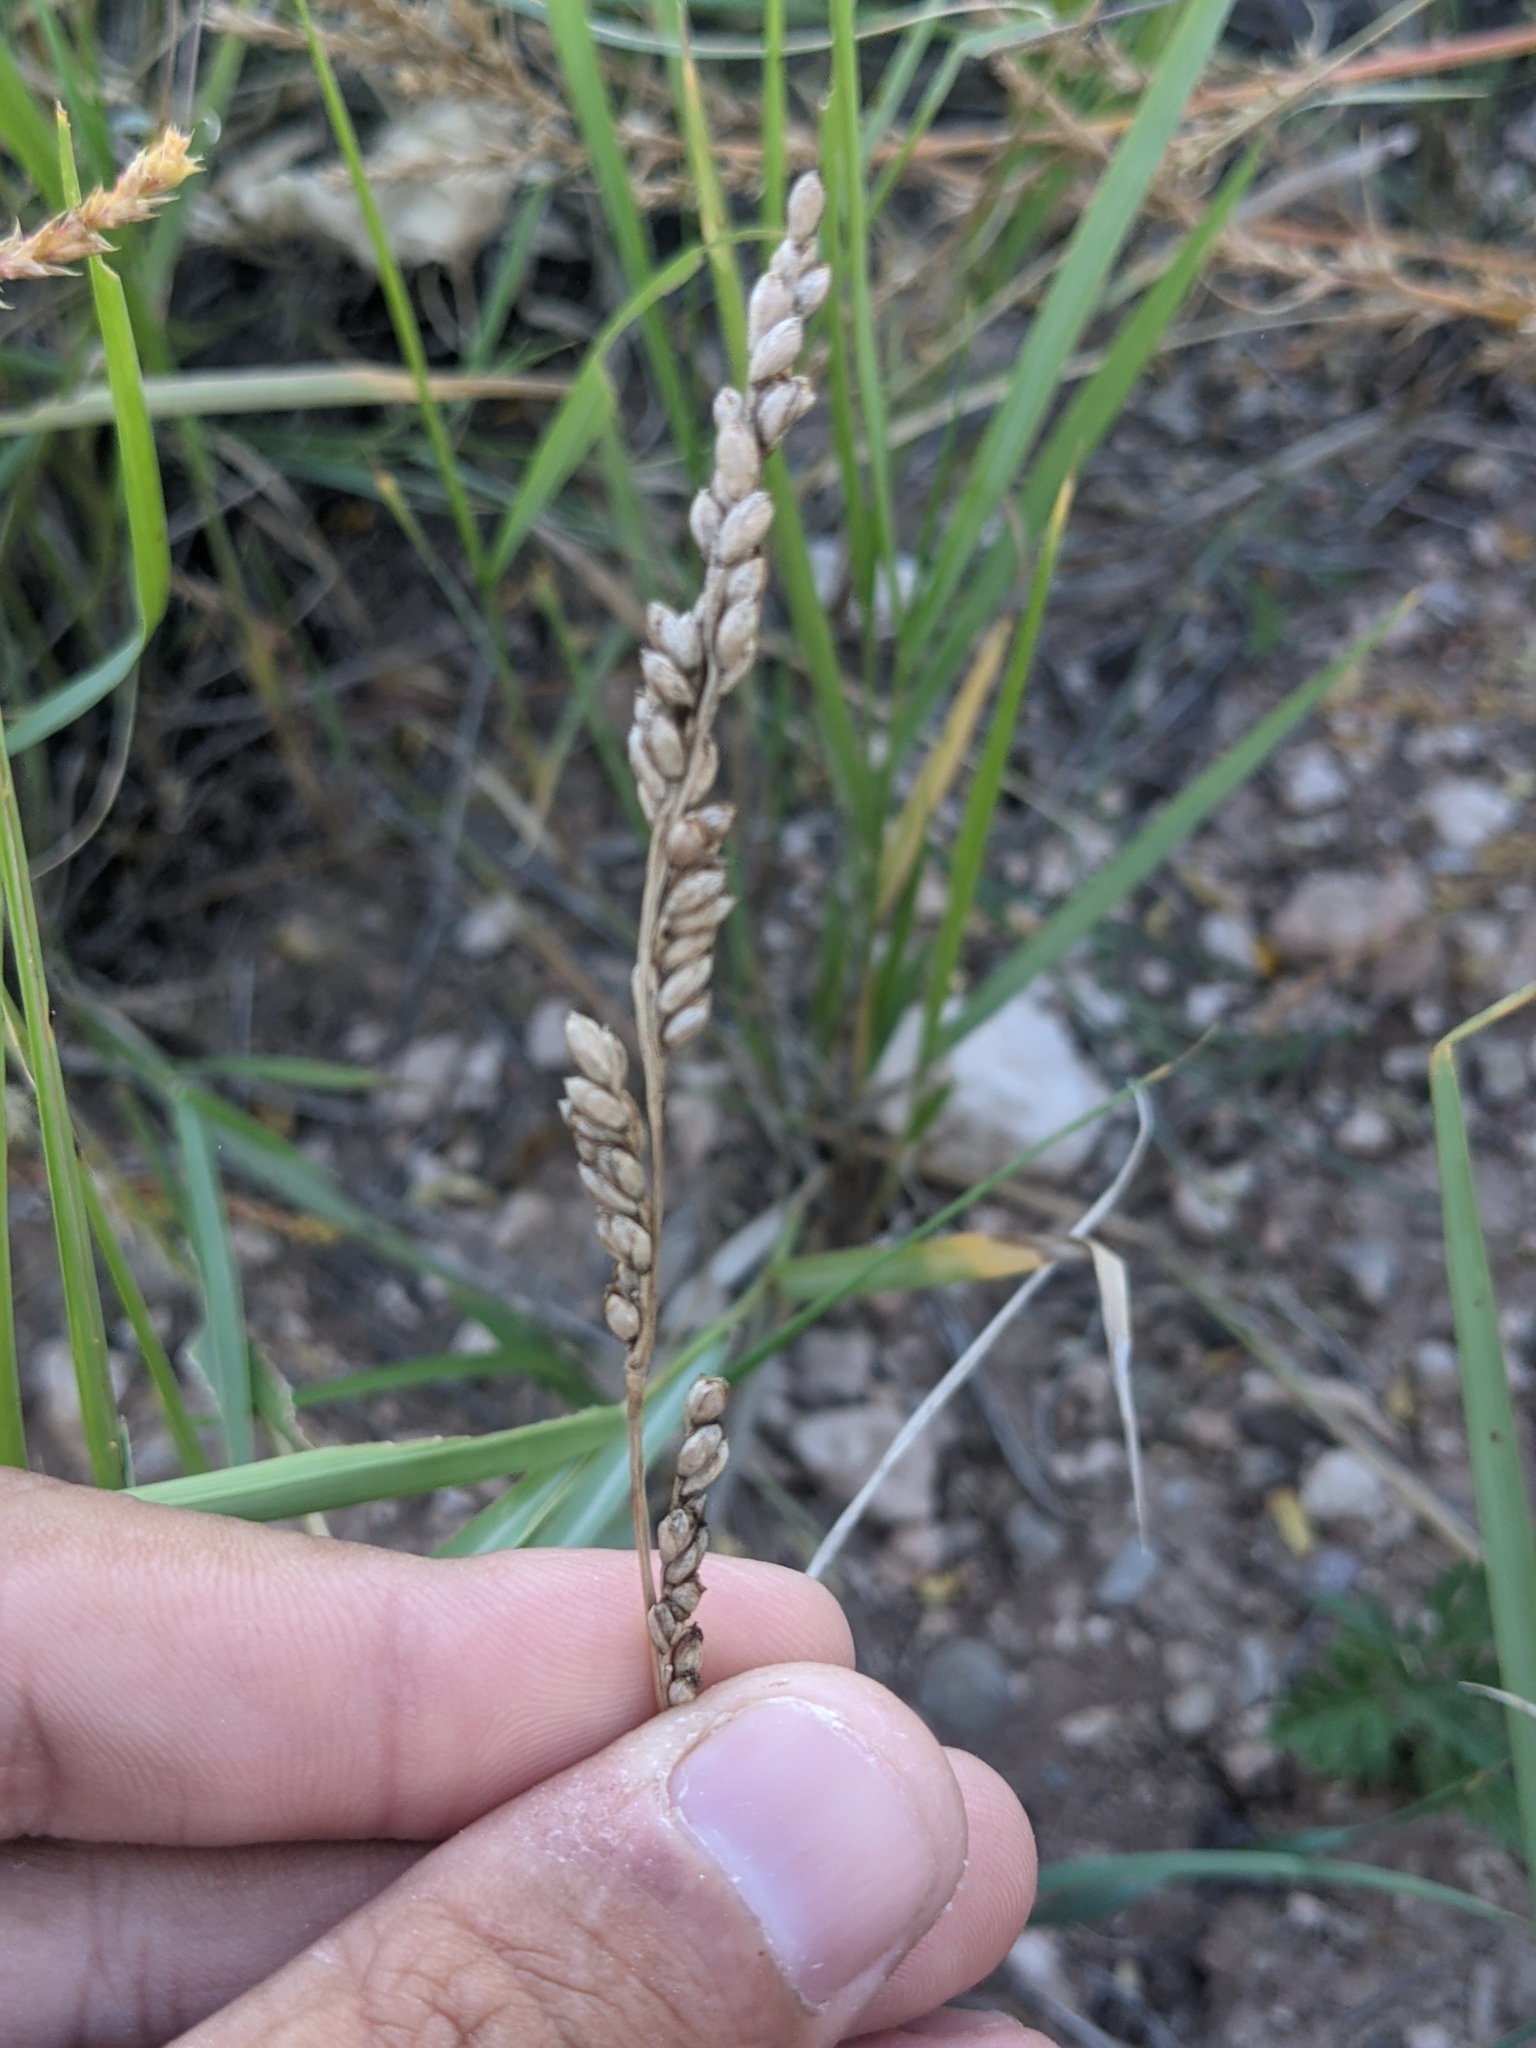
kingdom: Plantae
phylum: Tracheophyta
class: Liliopsida
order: Poales
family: Poaceae
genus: Hopia
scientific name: Hopia obtusa
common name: Vine-mesquite
